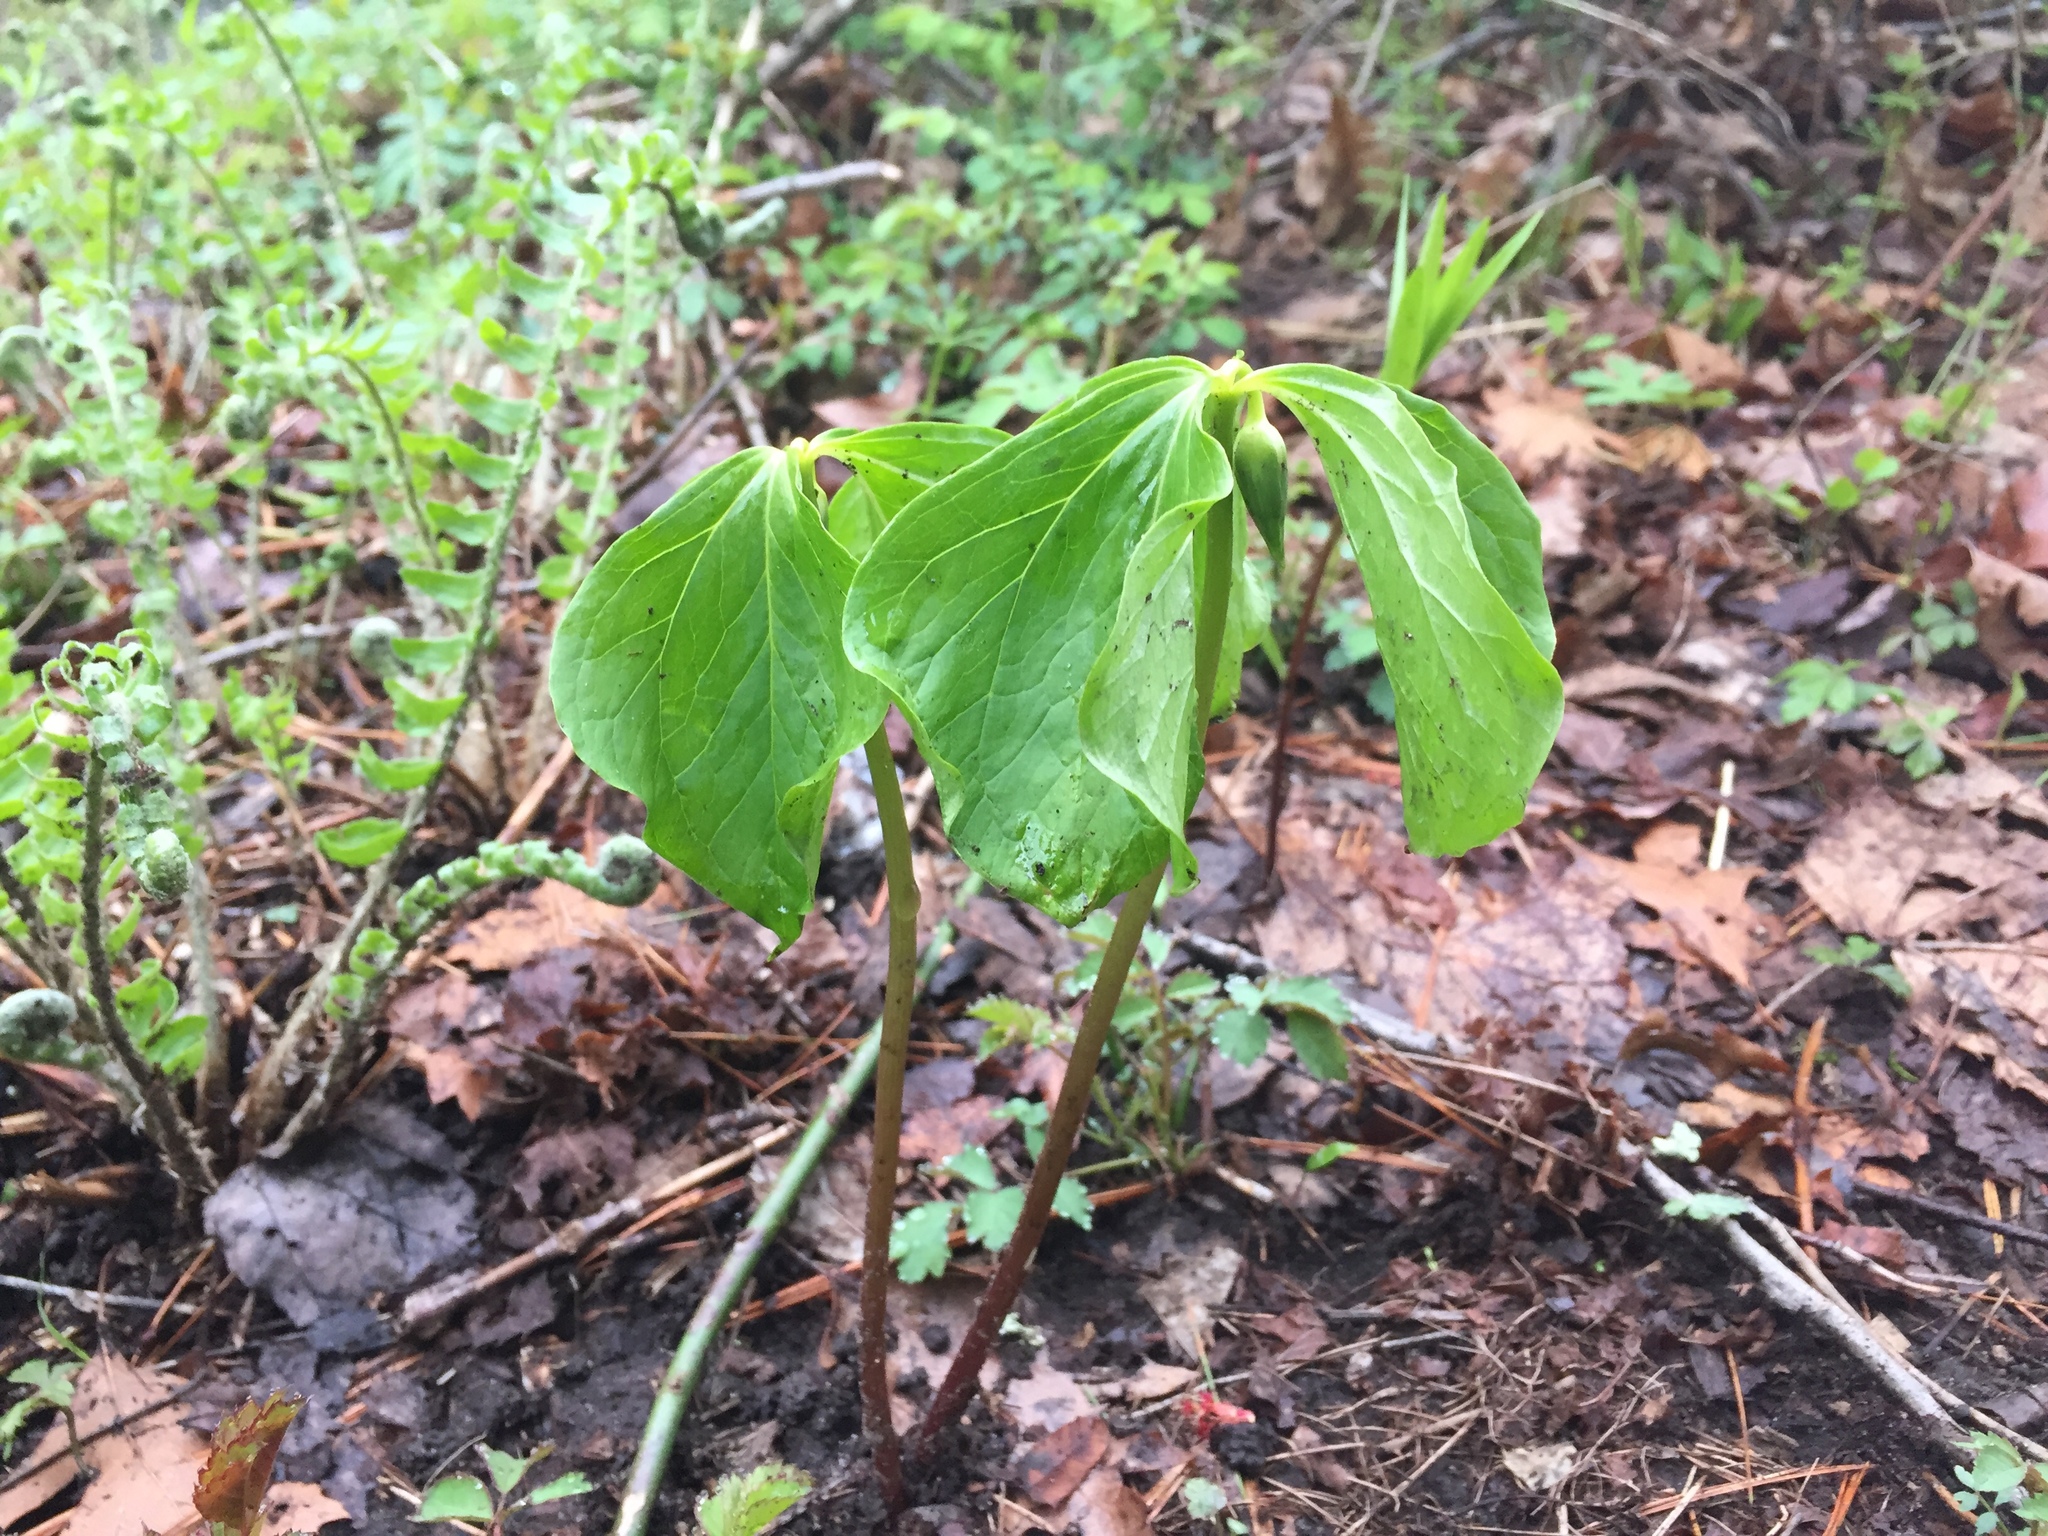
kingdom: Plantae
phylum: Tracheophyta
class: Liliopsida
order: Liliales
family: Melanthiaceae
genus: Trillium
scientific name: Trillium cernuum
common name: Nodding trillium
